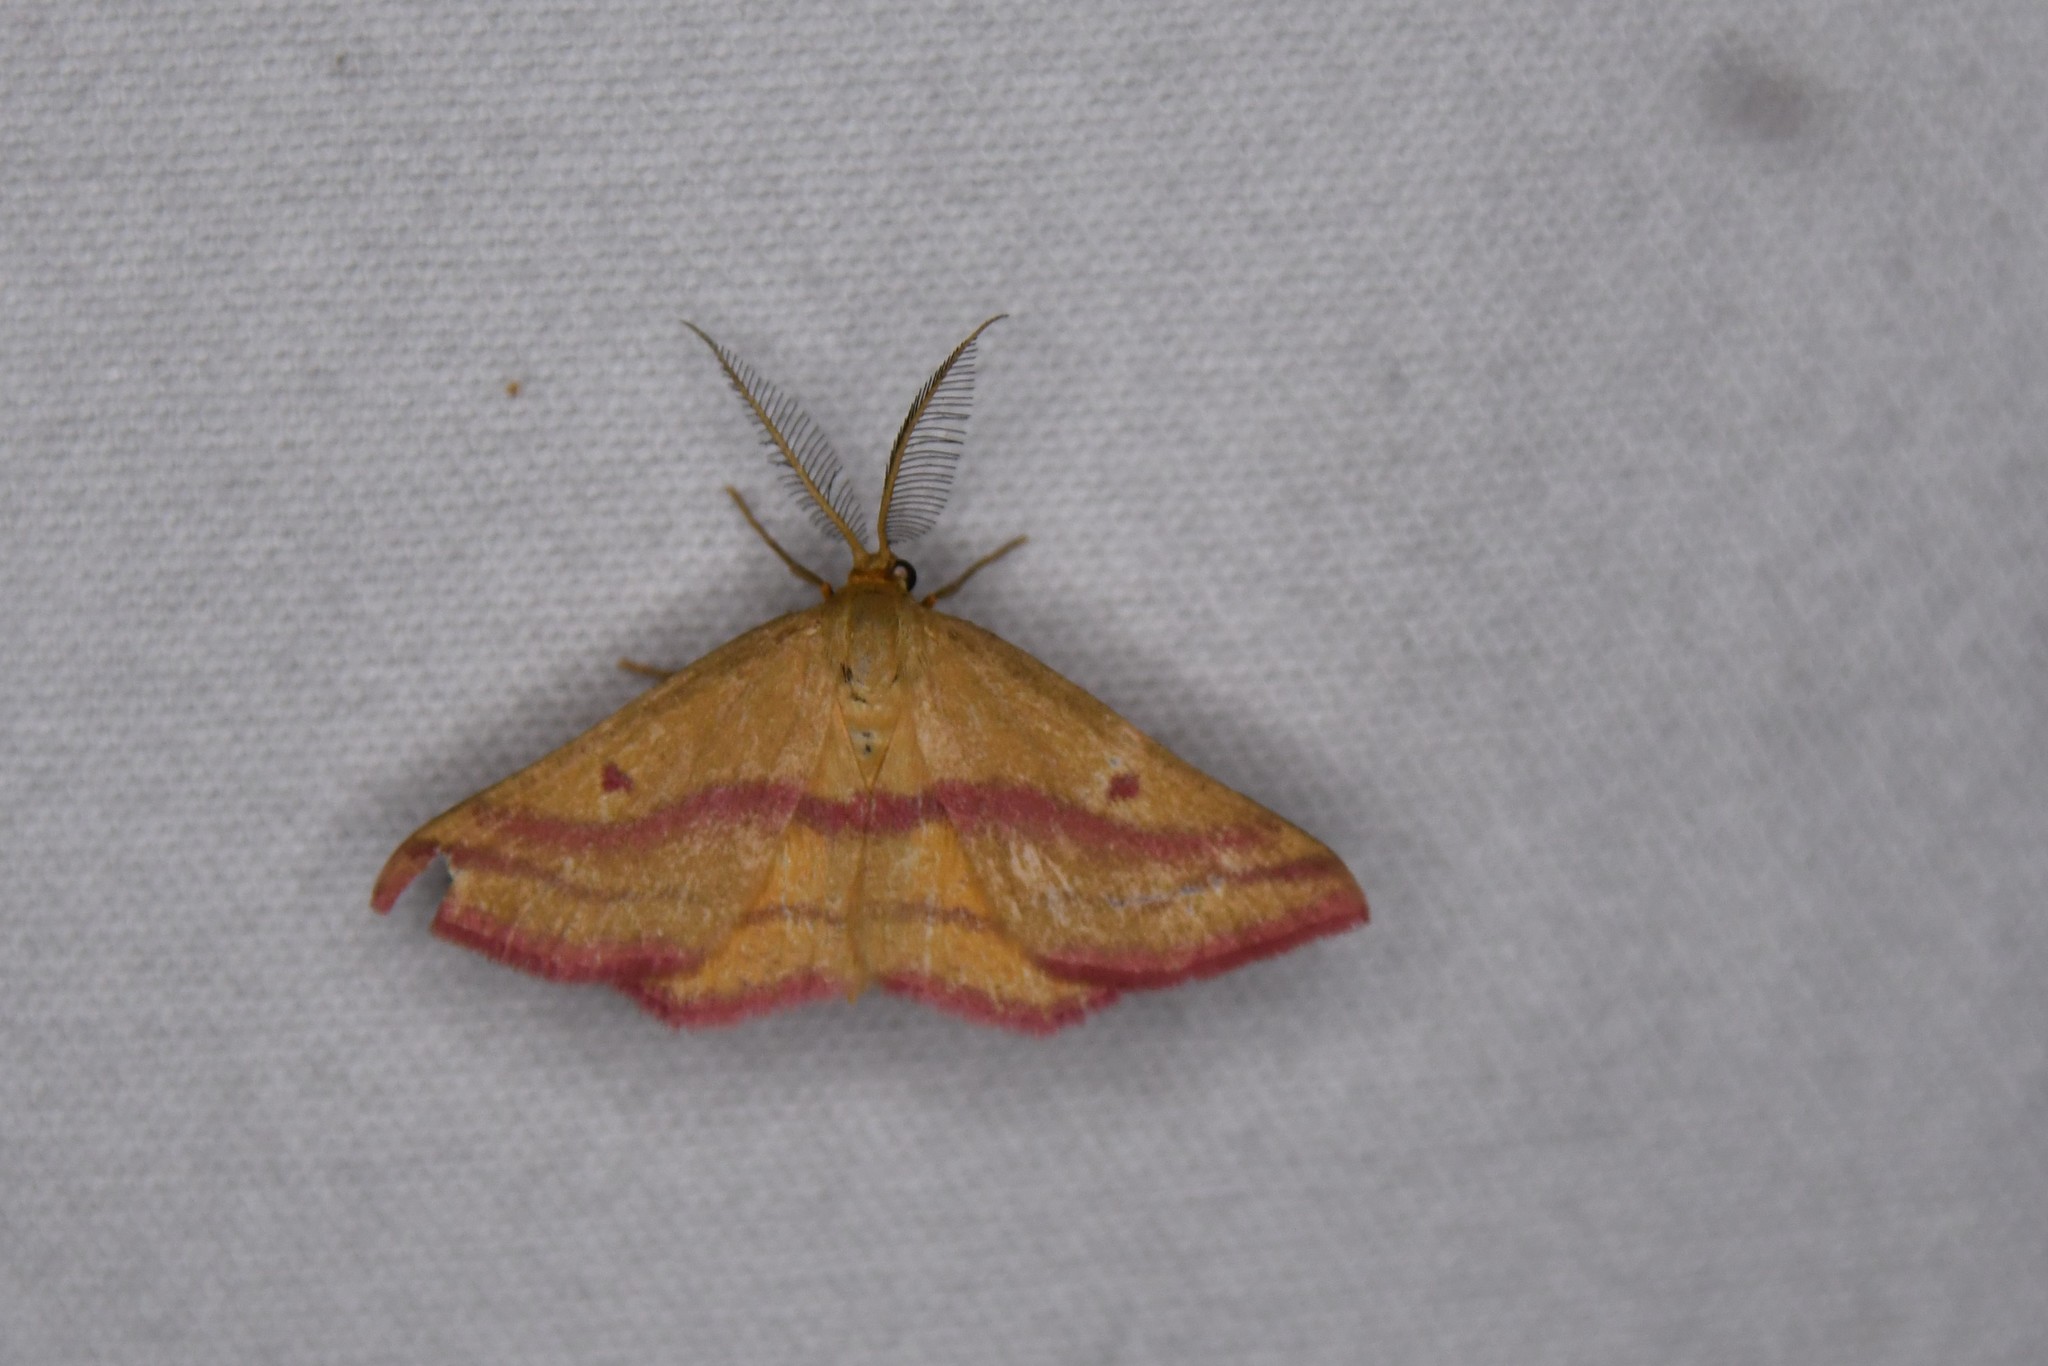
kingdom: Animalia
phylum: Arthropoda
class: Insecta
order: Lepidoptera
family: Geometridae
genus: Haematopis
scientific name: Haematopis grataria
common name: Chickweed geometer
